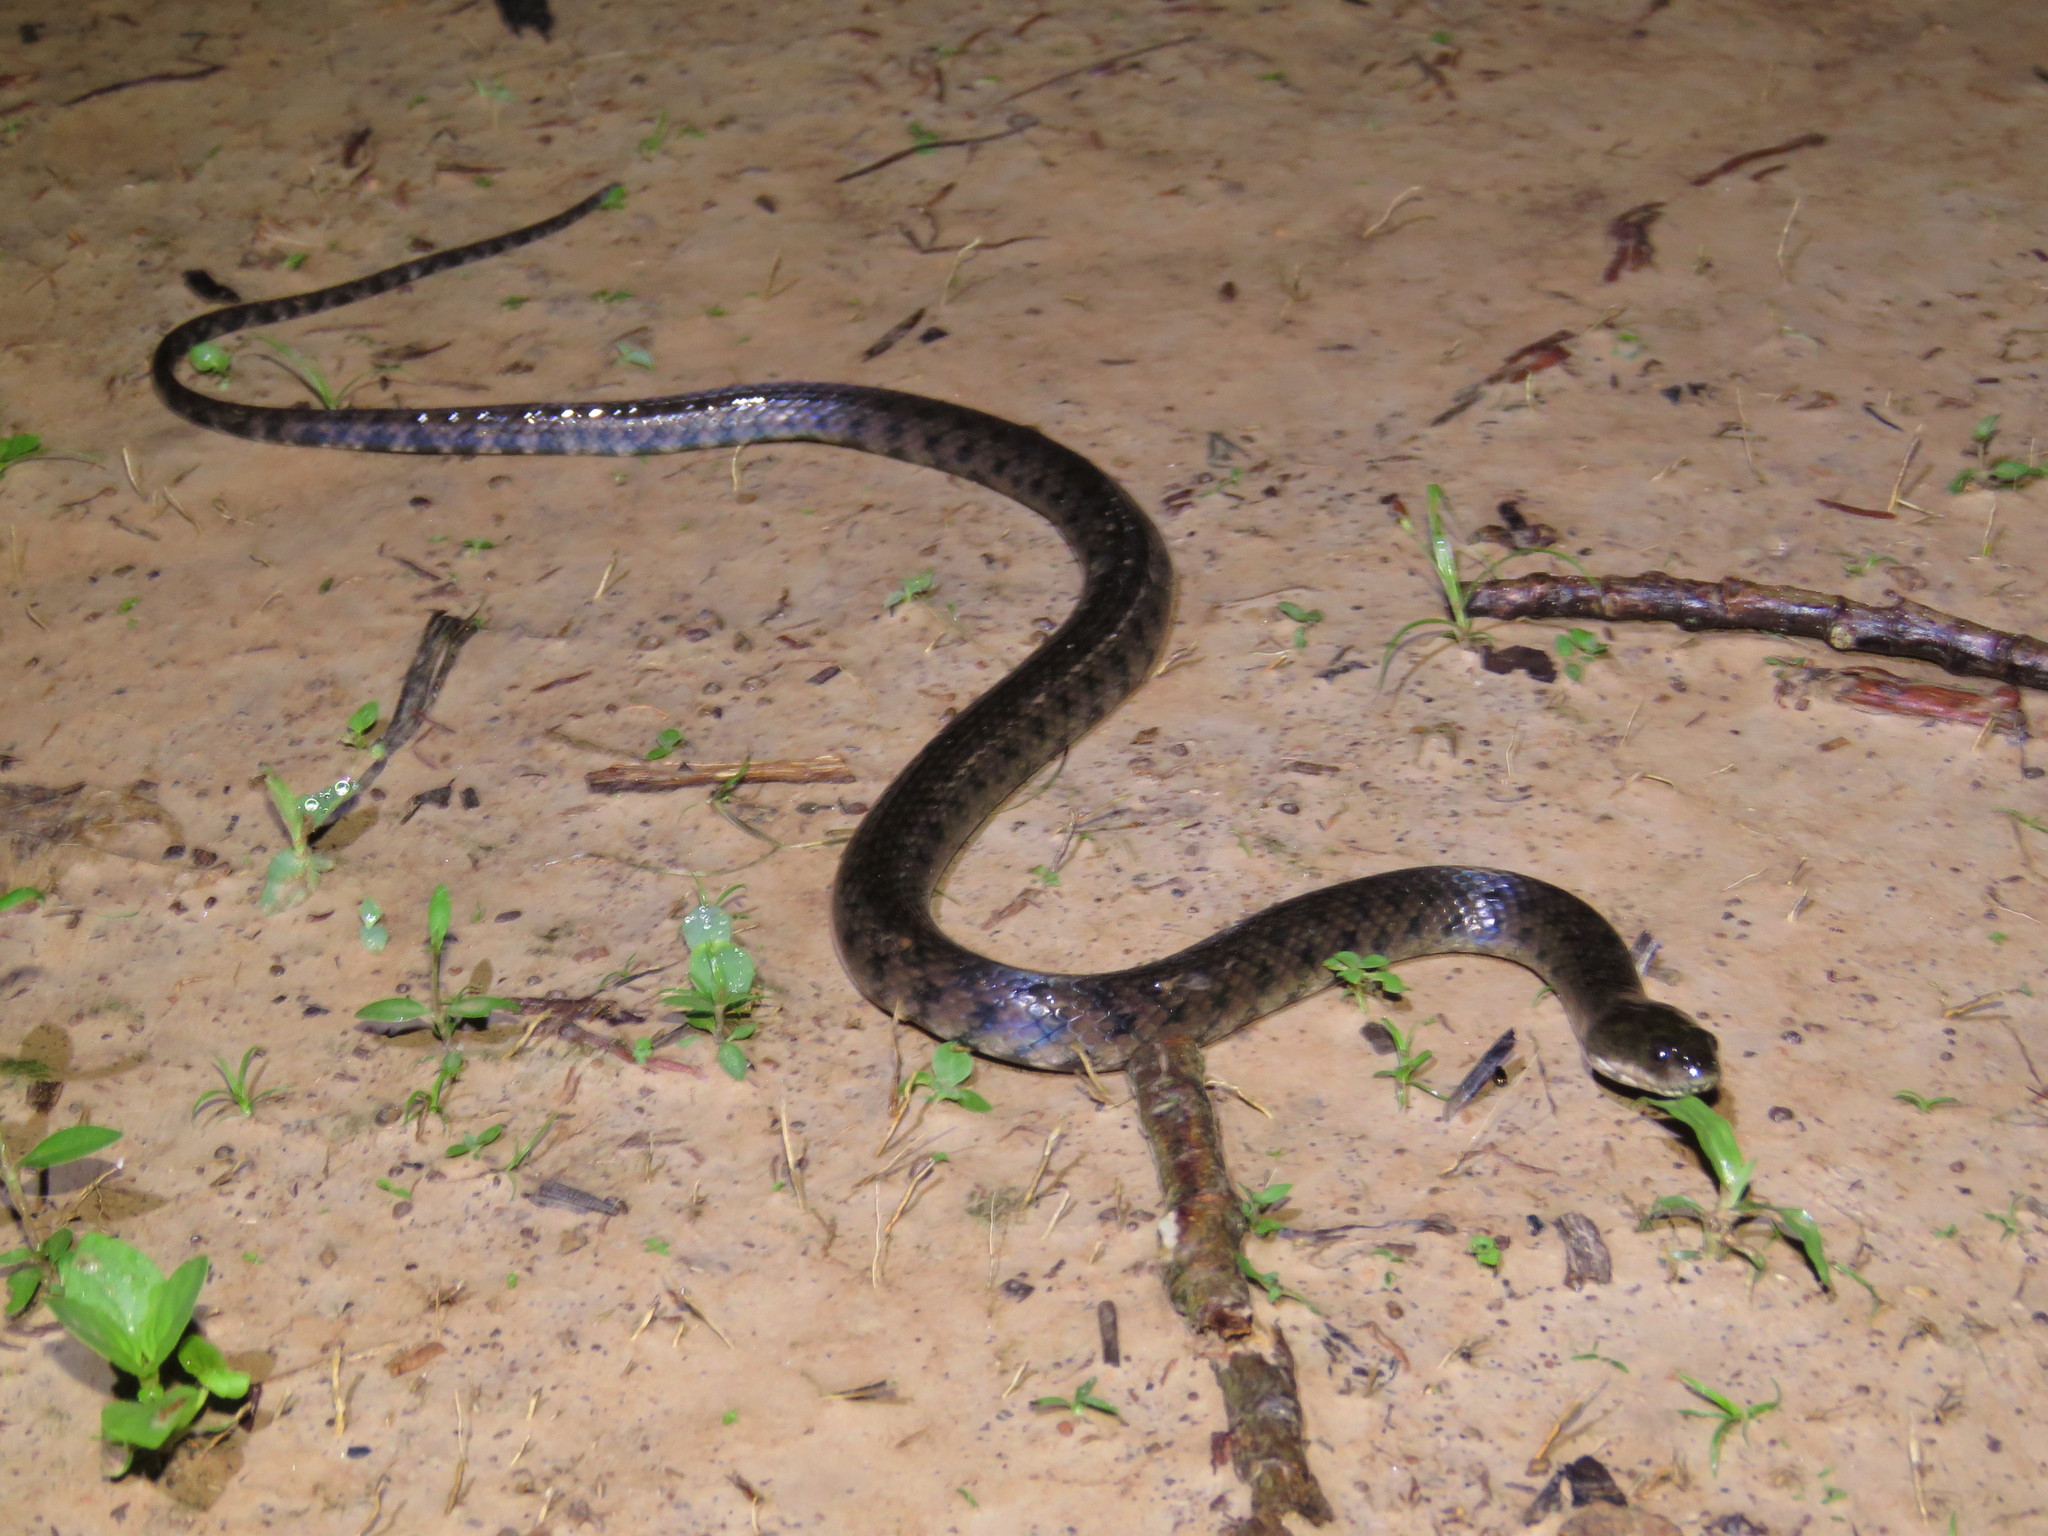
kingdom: Animalia
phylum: Chordata
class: Squamata
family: Colubridae
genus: Helicops
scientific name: Helicops leopardinus
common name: Leopard keelback
